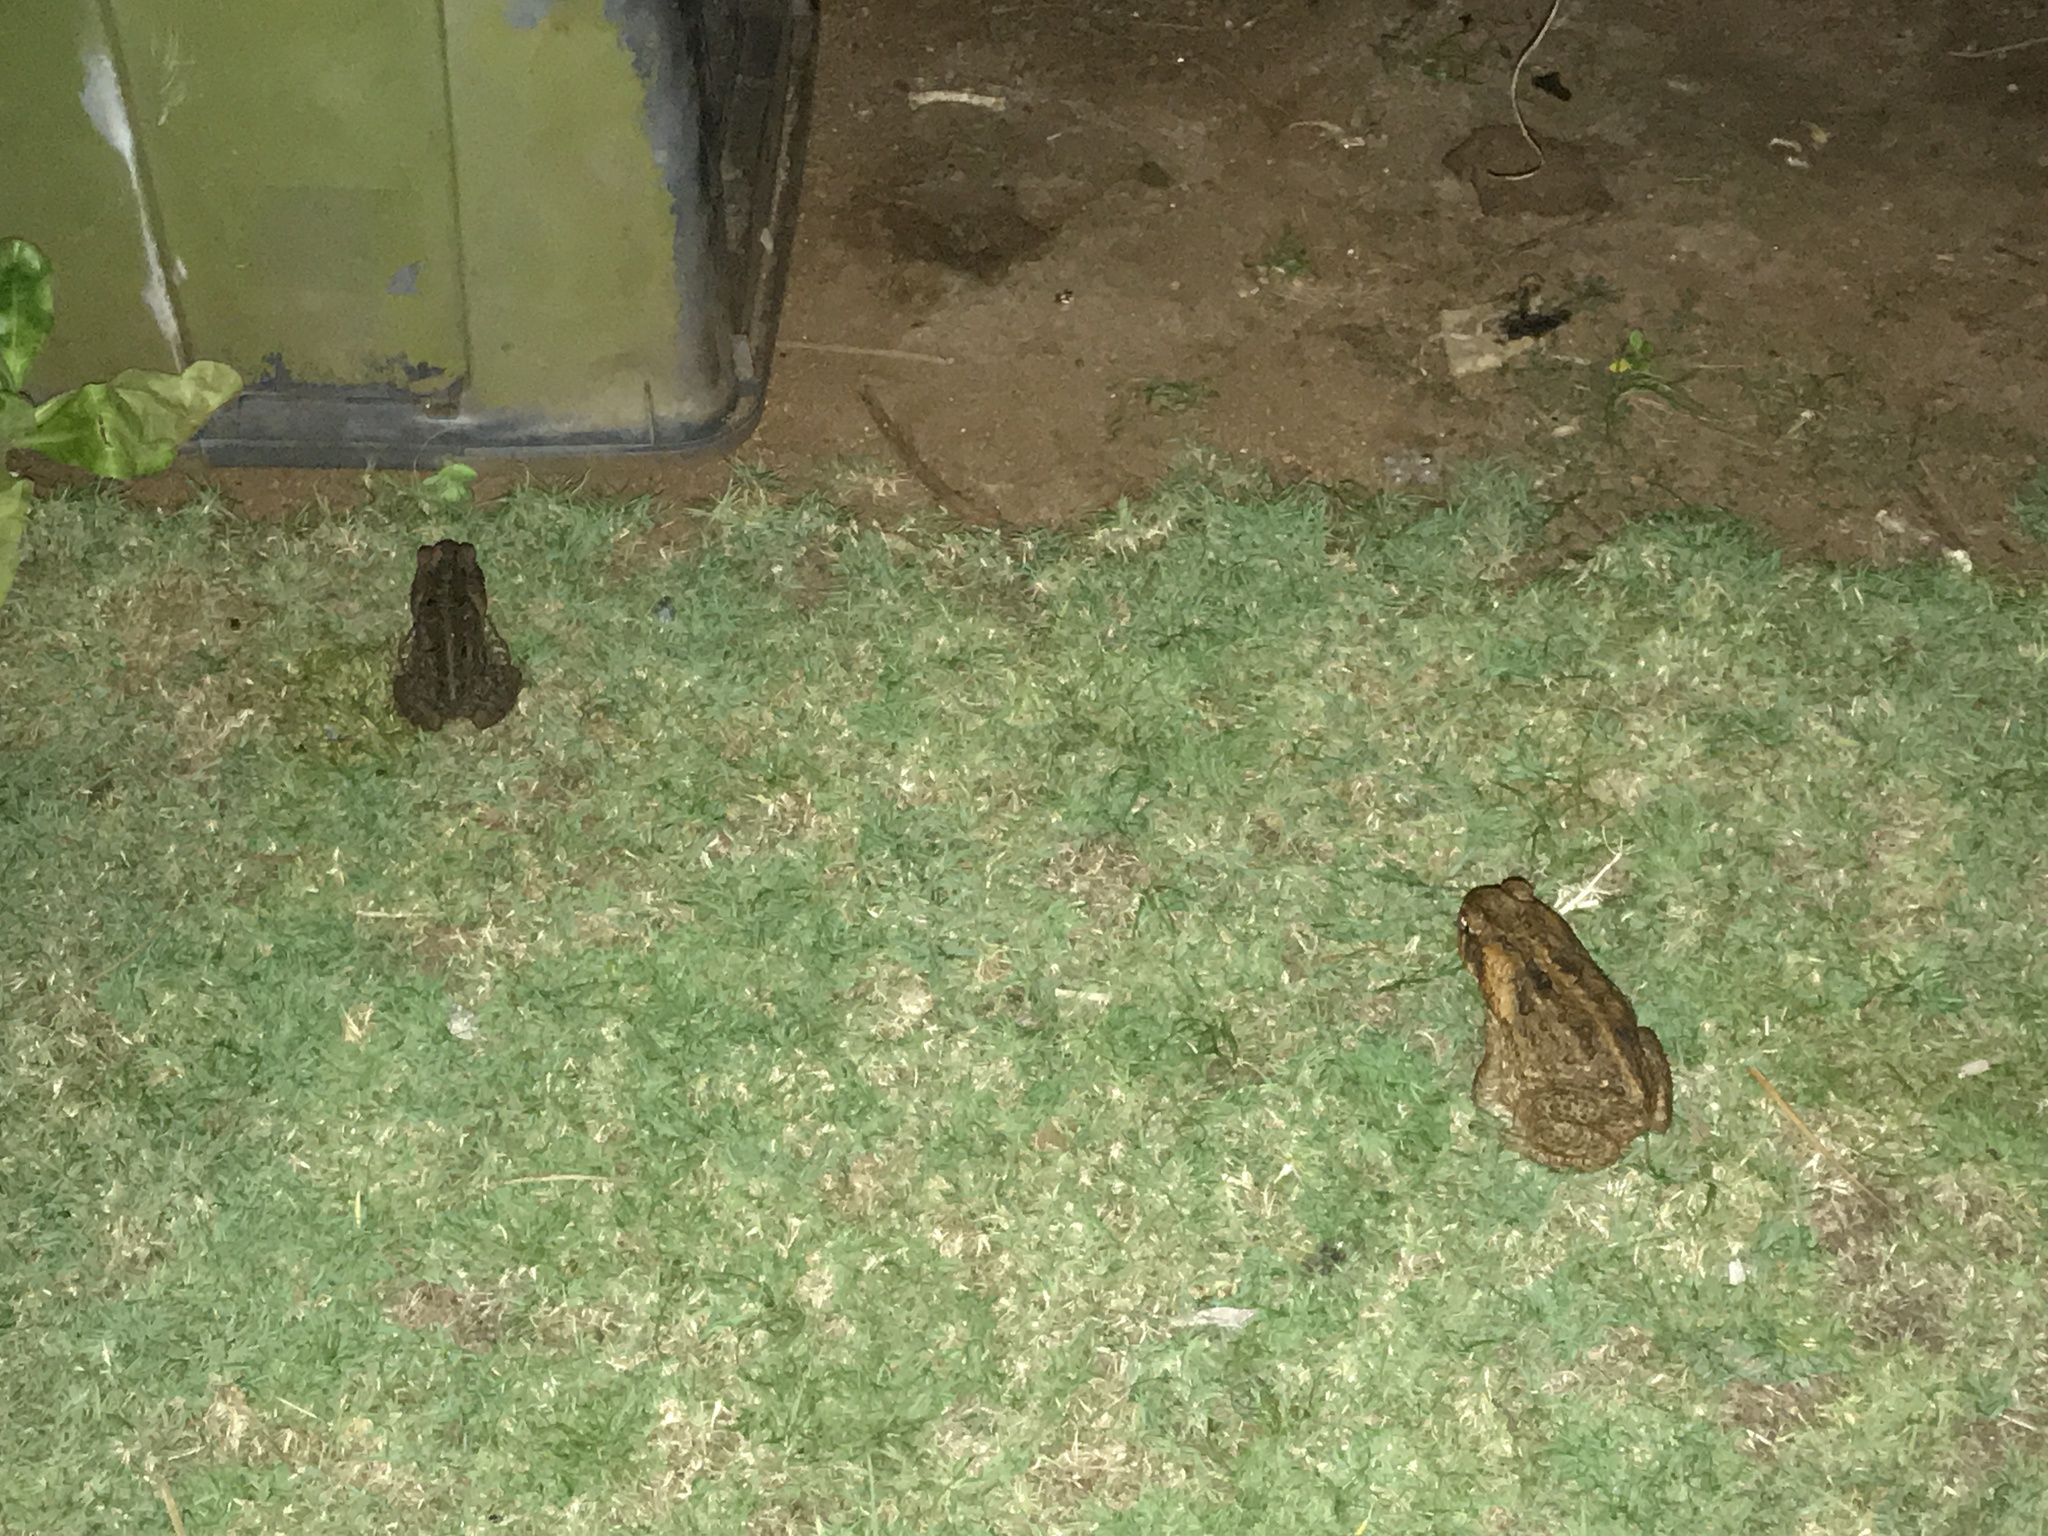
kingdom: Animalia
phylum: Chordata
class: Amphibia
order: Anura
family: Bufonidae
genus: Rhinella
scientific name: Rhinella marina
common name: Cane toad
